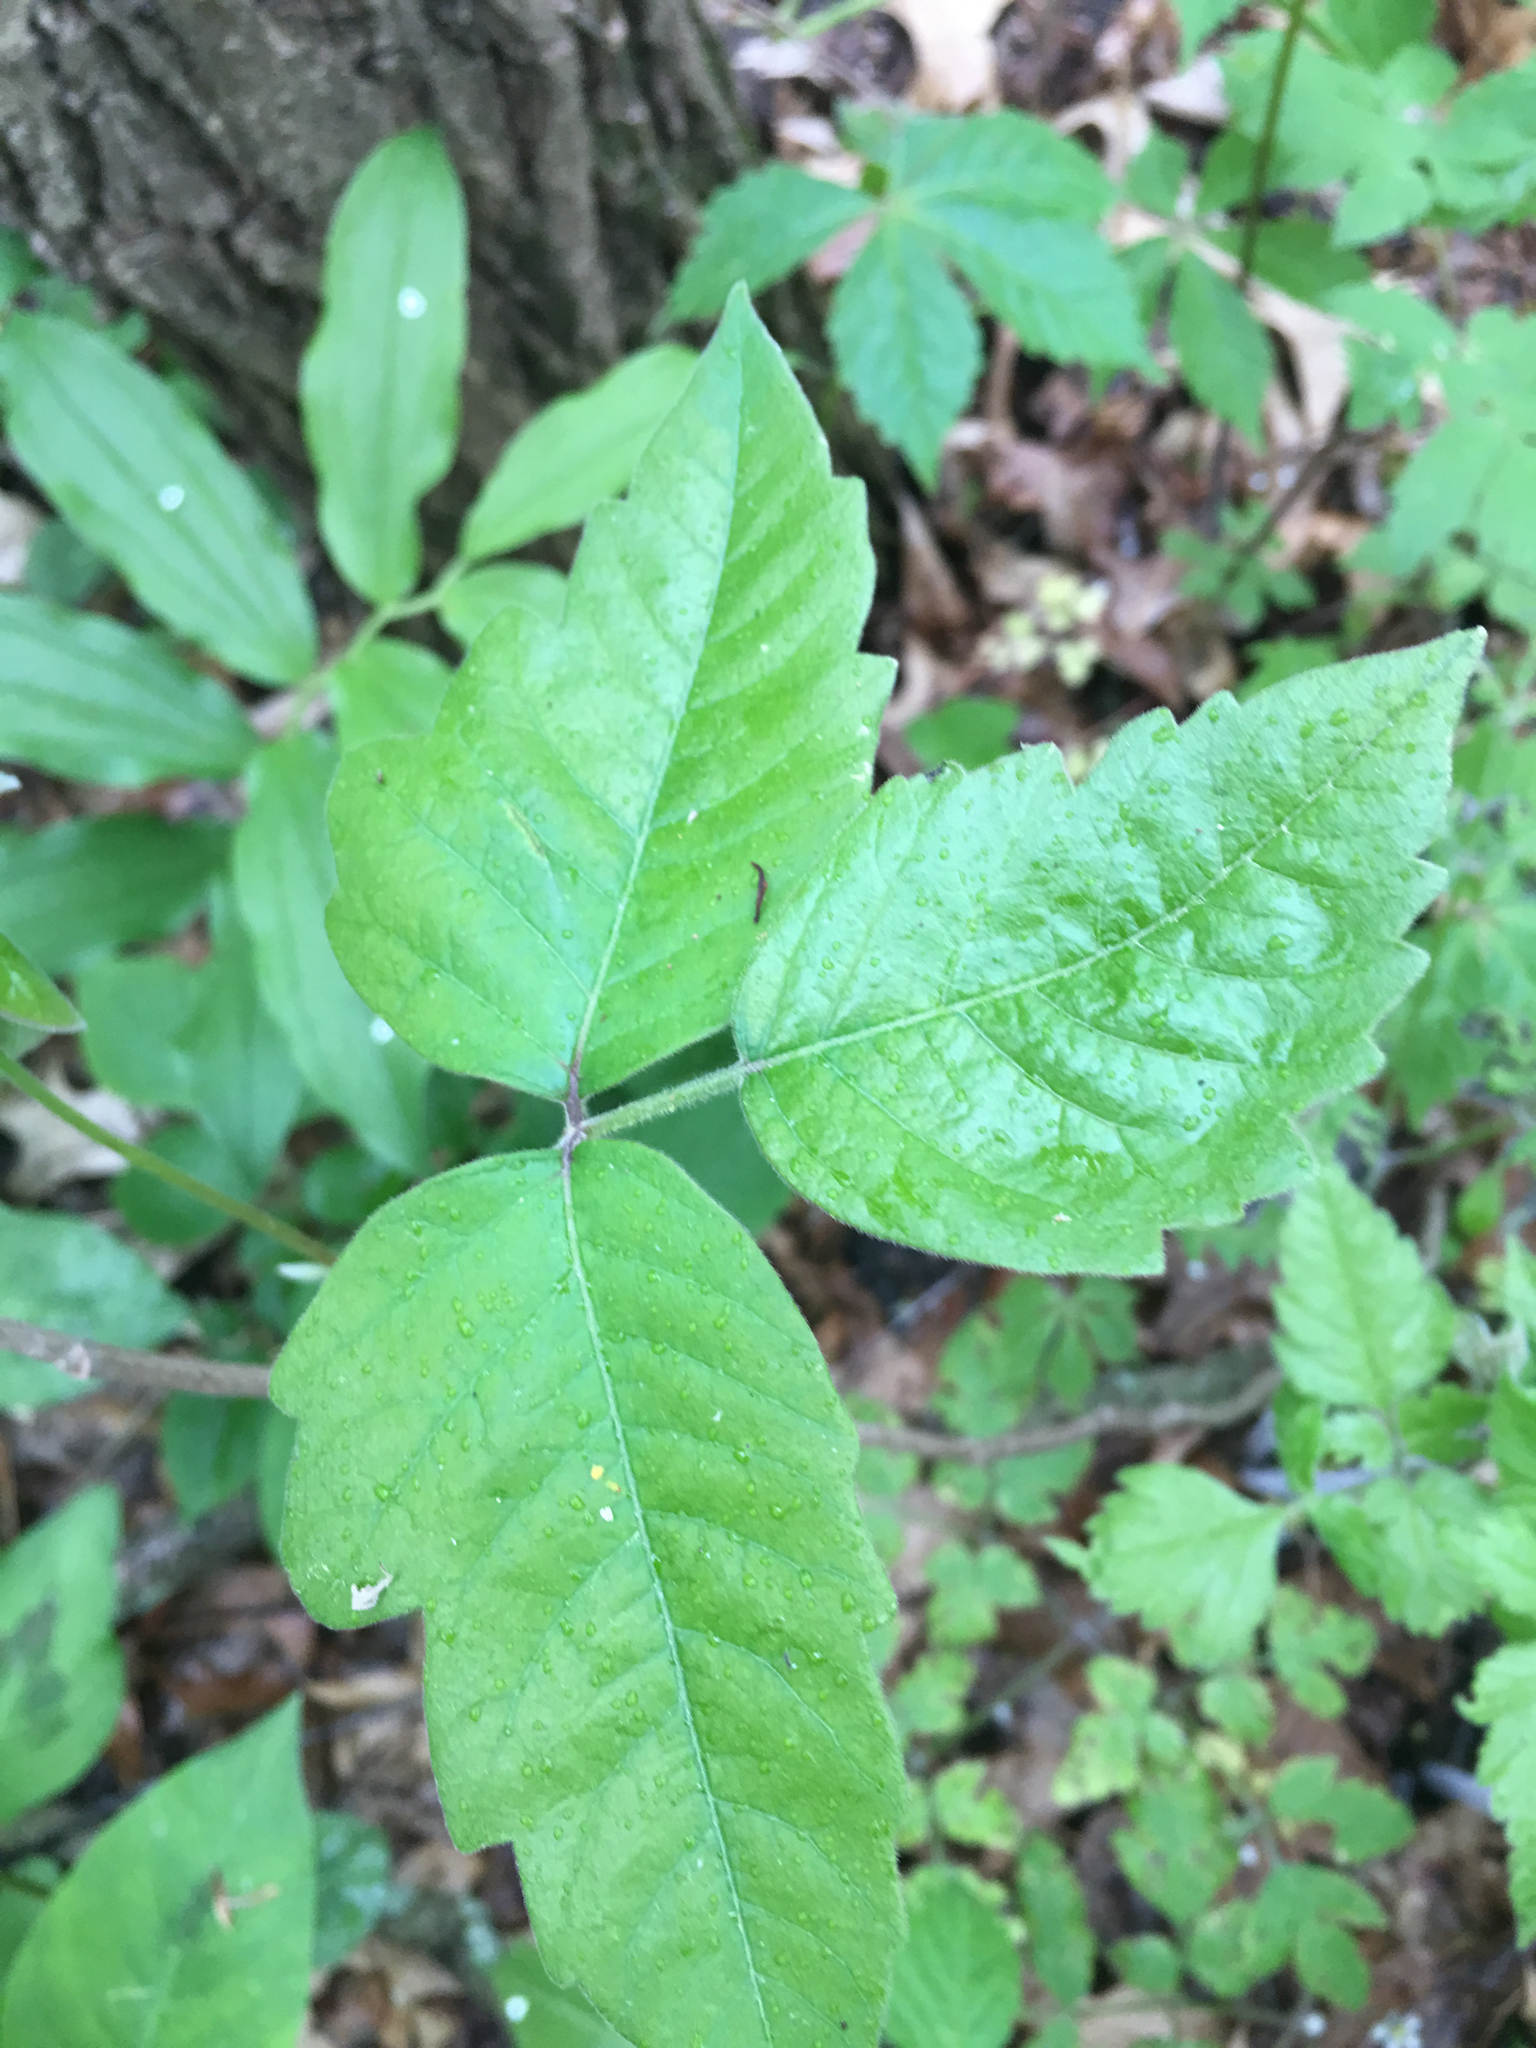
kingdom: Plantae
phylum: Tracheophyta
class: Magnoliopsida
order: Sapindales
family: Anacardiaceae
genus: Toxicodendron
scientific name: Toxicodendron radicans
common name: Poison ivy
